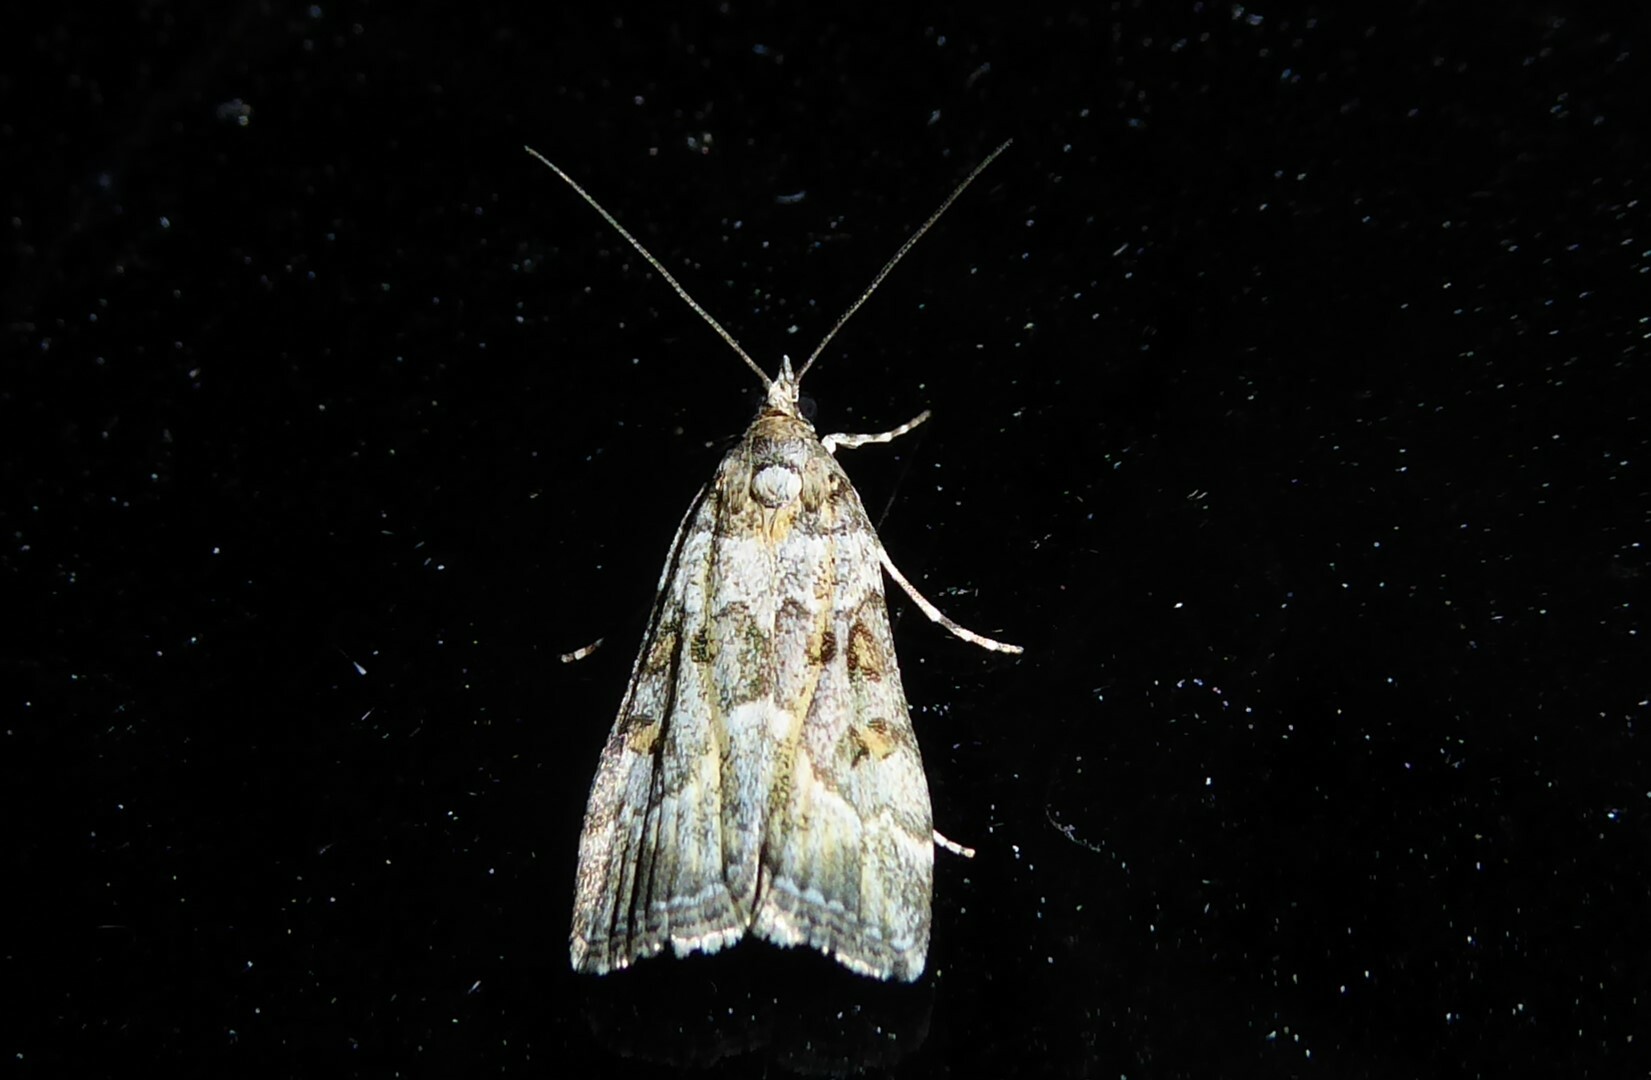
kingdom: Animalia
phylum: Arthropoda
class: Insecta
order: Lepidoptera
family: Crambidae
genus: Scoparia
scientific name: Scoparia tetracycla
